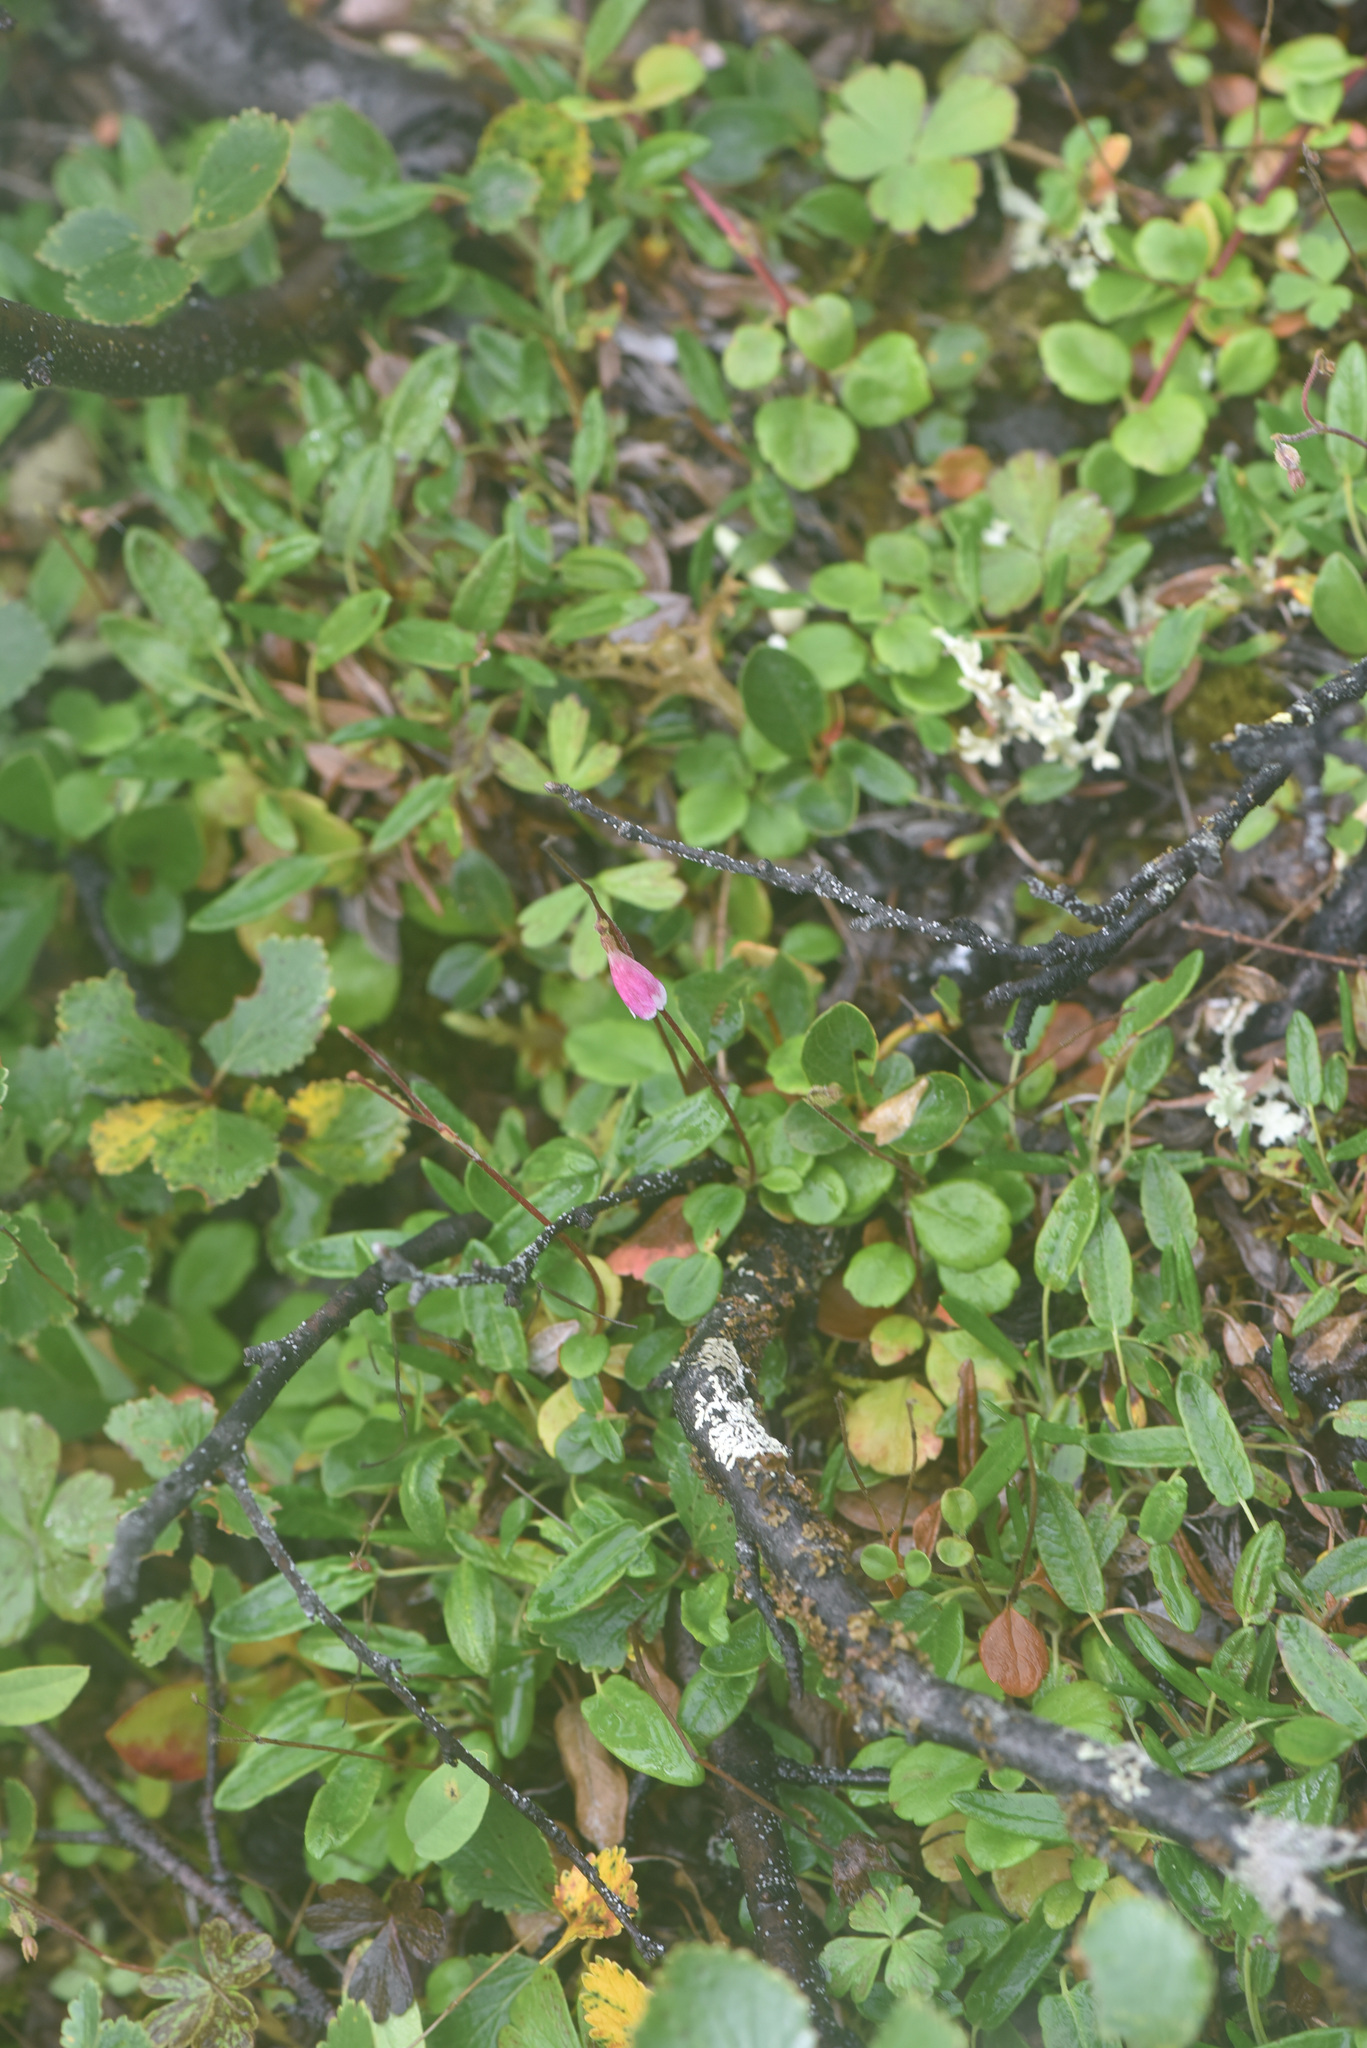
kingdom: Plantae
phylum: Tracheophyta
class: Magnoliopsida
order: Dipsacales
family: Caprifoliaceae
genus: Linnaea
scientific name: Linnaea borealis
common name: Twinflower
